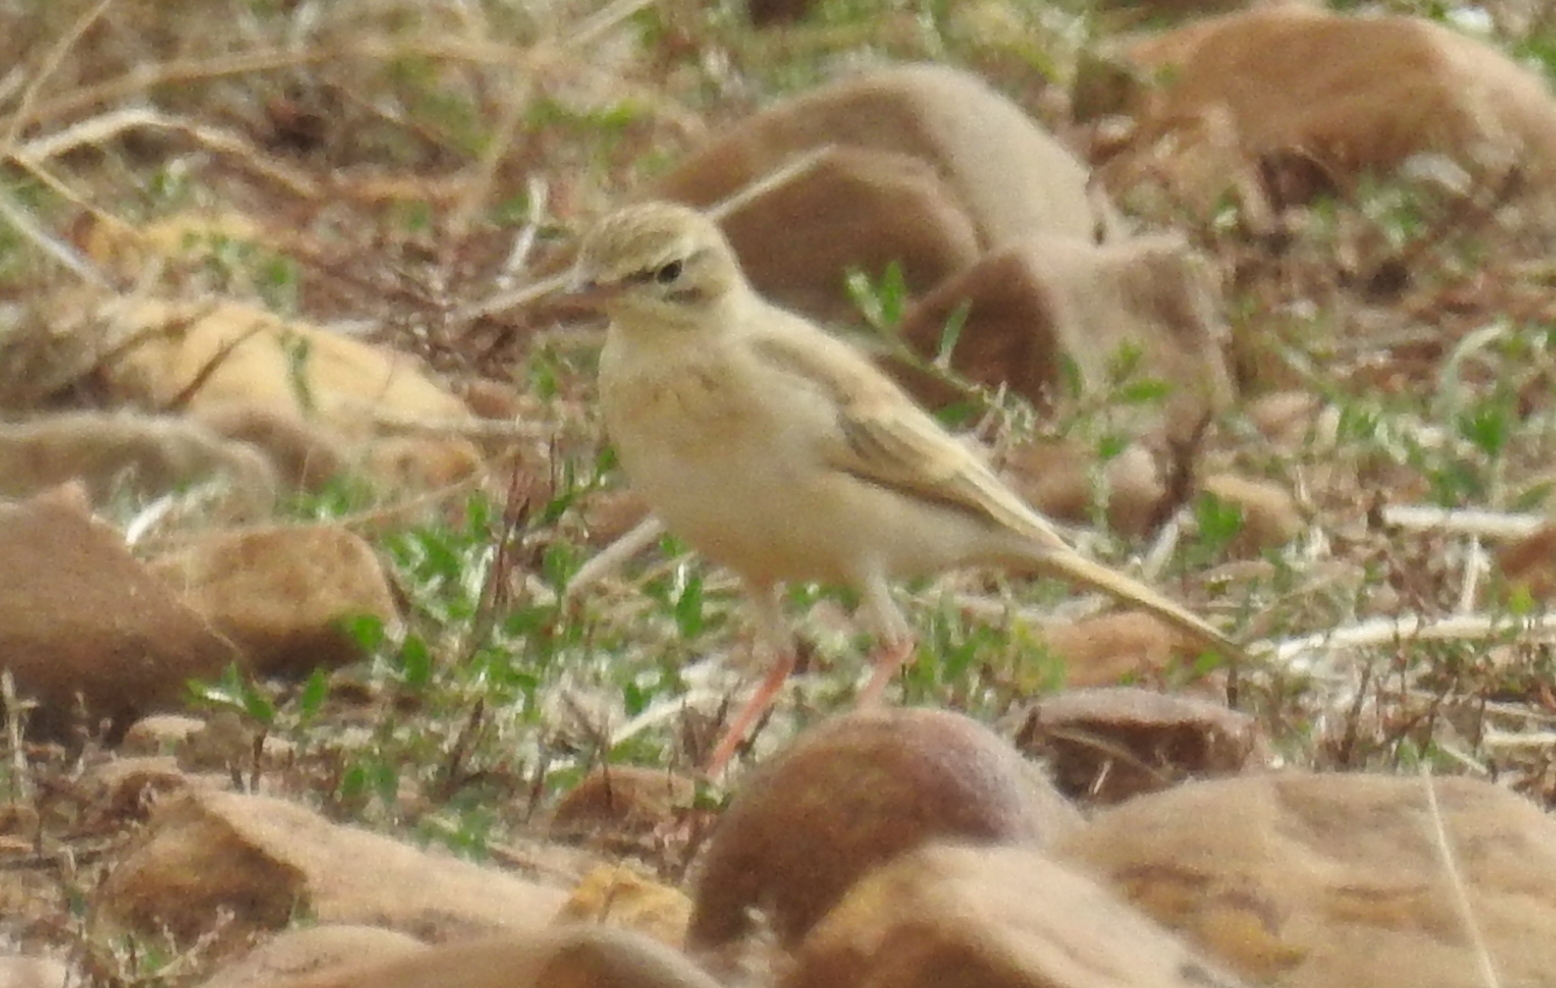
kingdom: Animalia
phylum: Chordata
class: Aves
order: Passeriformes
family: Motacillidae
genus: Anthus
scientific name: Anthus campestris
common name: Tawny pipit
